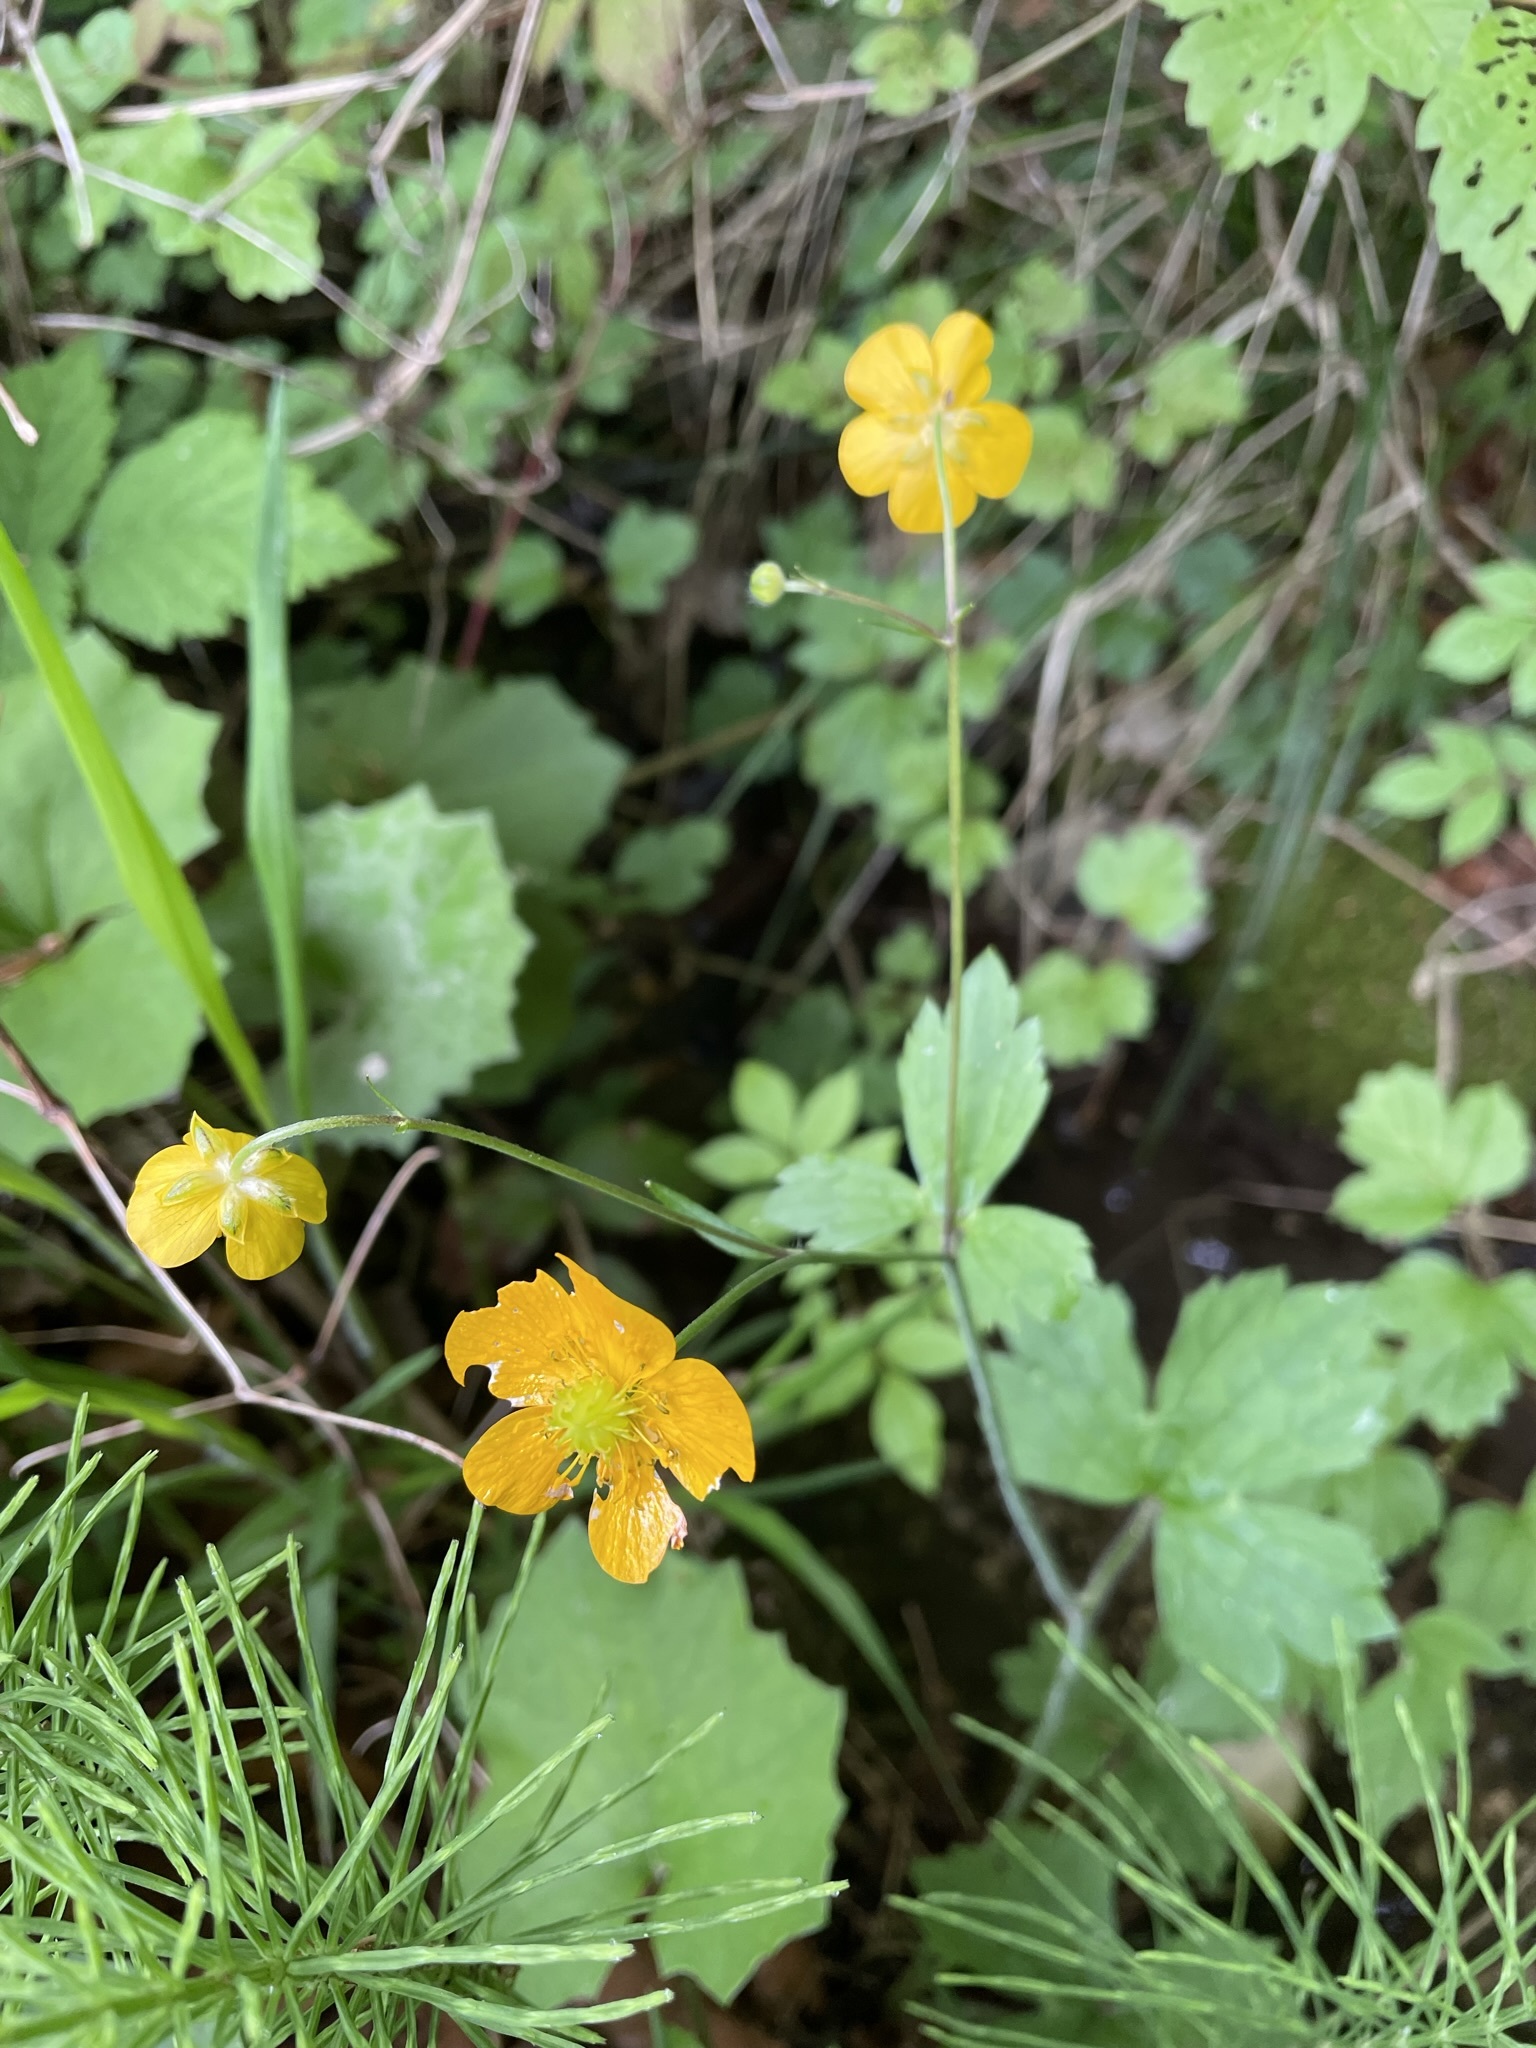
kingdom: Plantae
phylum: Tracheophyta
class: Magnoliopsida
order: Ranunculales
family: Ranunculaceae
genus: Ranunculus
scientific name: Ranunculus lanuginosus
